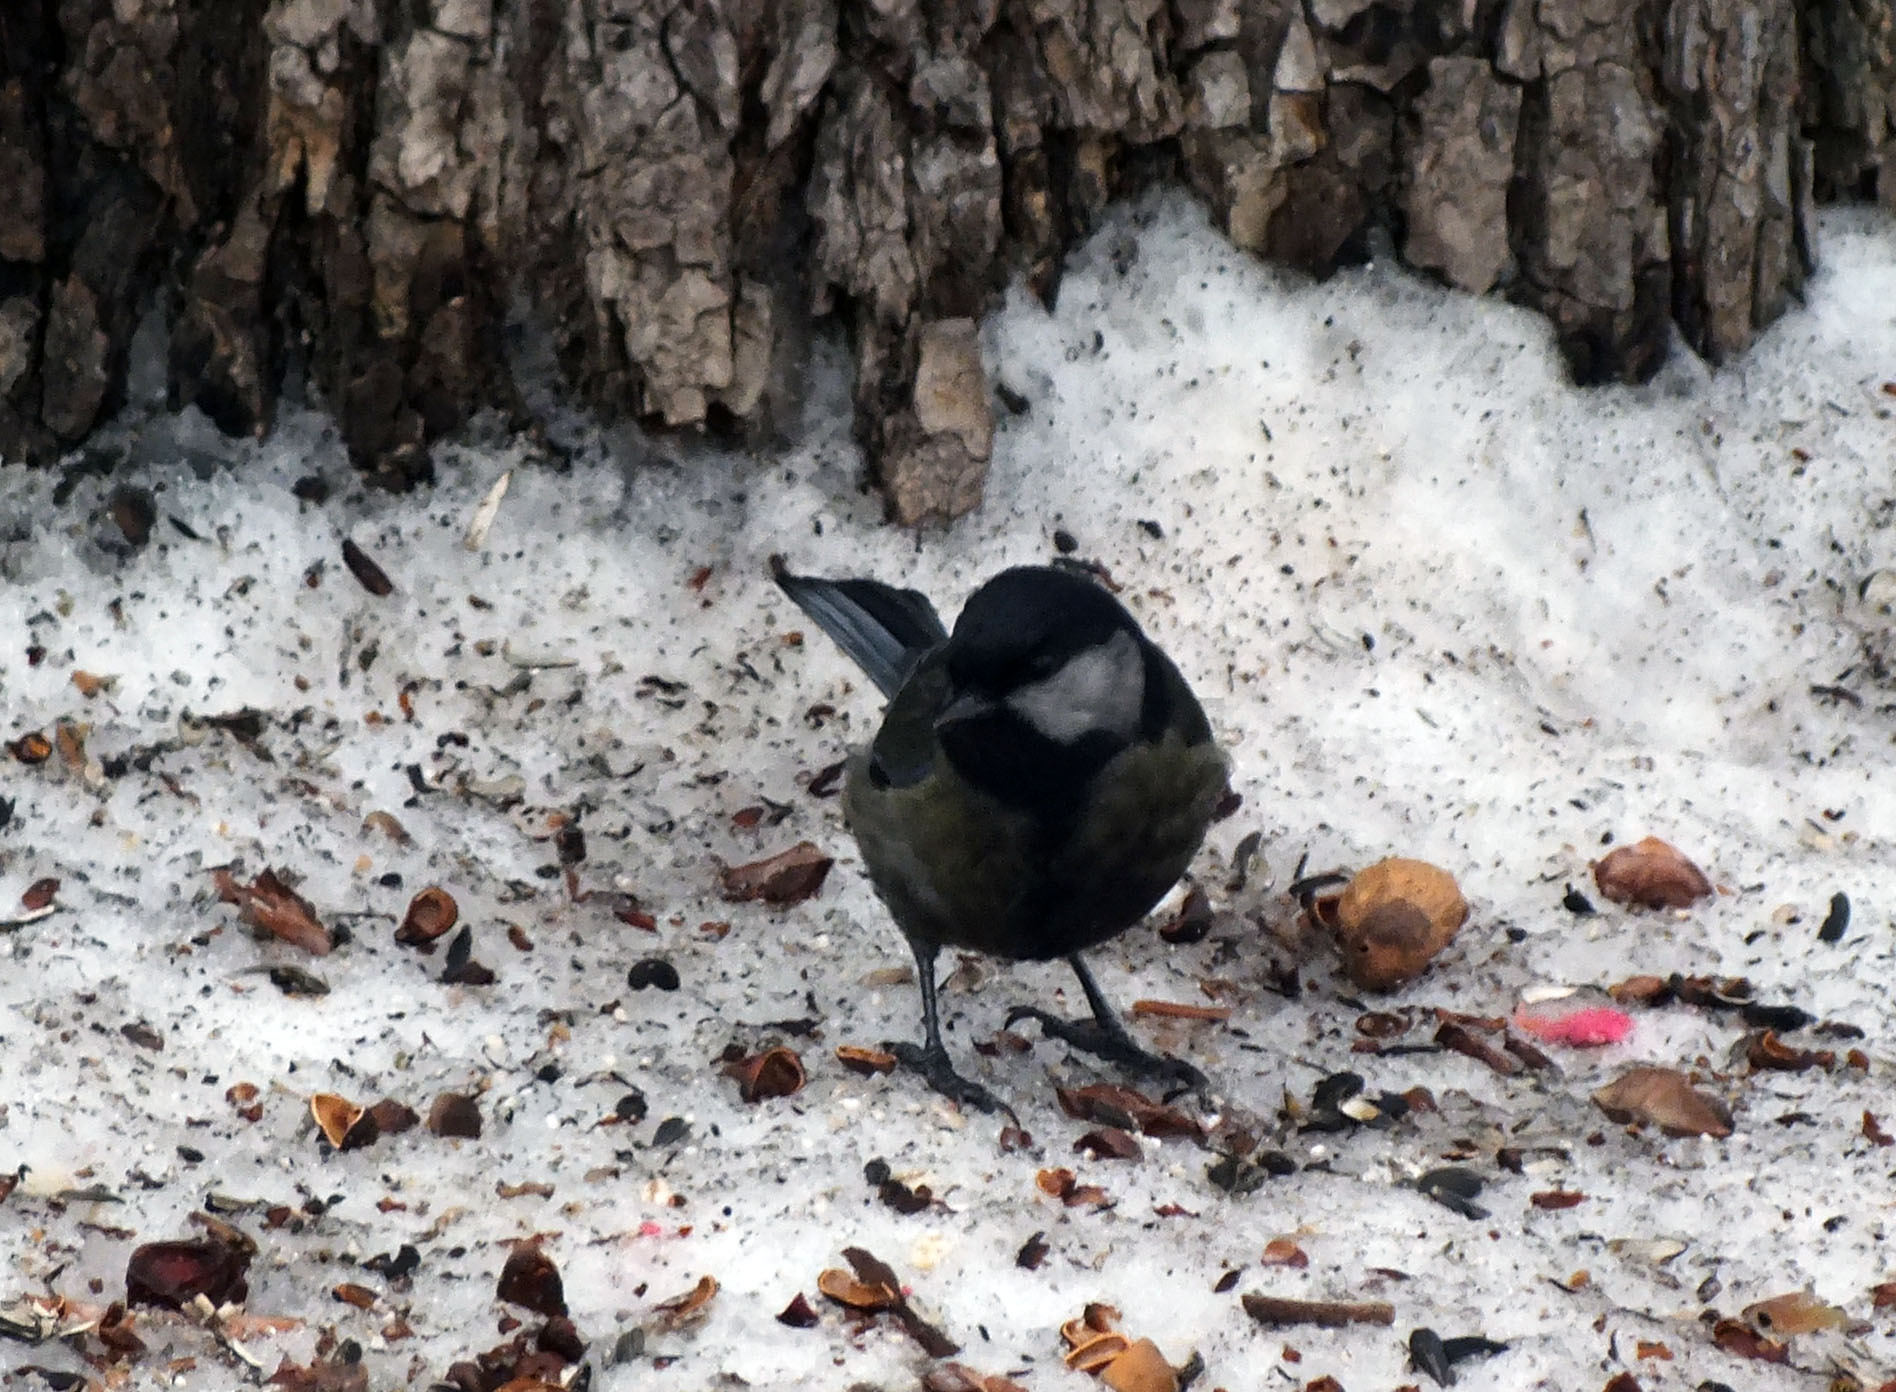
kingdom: Animalia
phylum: Chordata
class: Aves
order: Passeriformes
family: Paridae
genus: Parus
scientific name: Parus major
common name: Great tit
